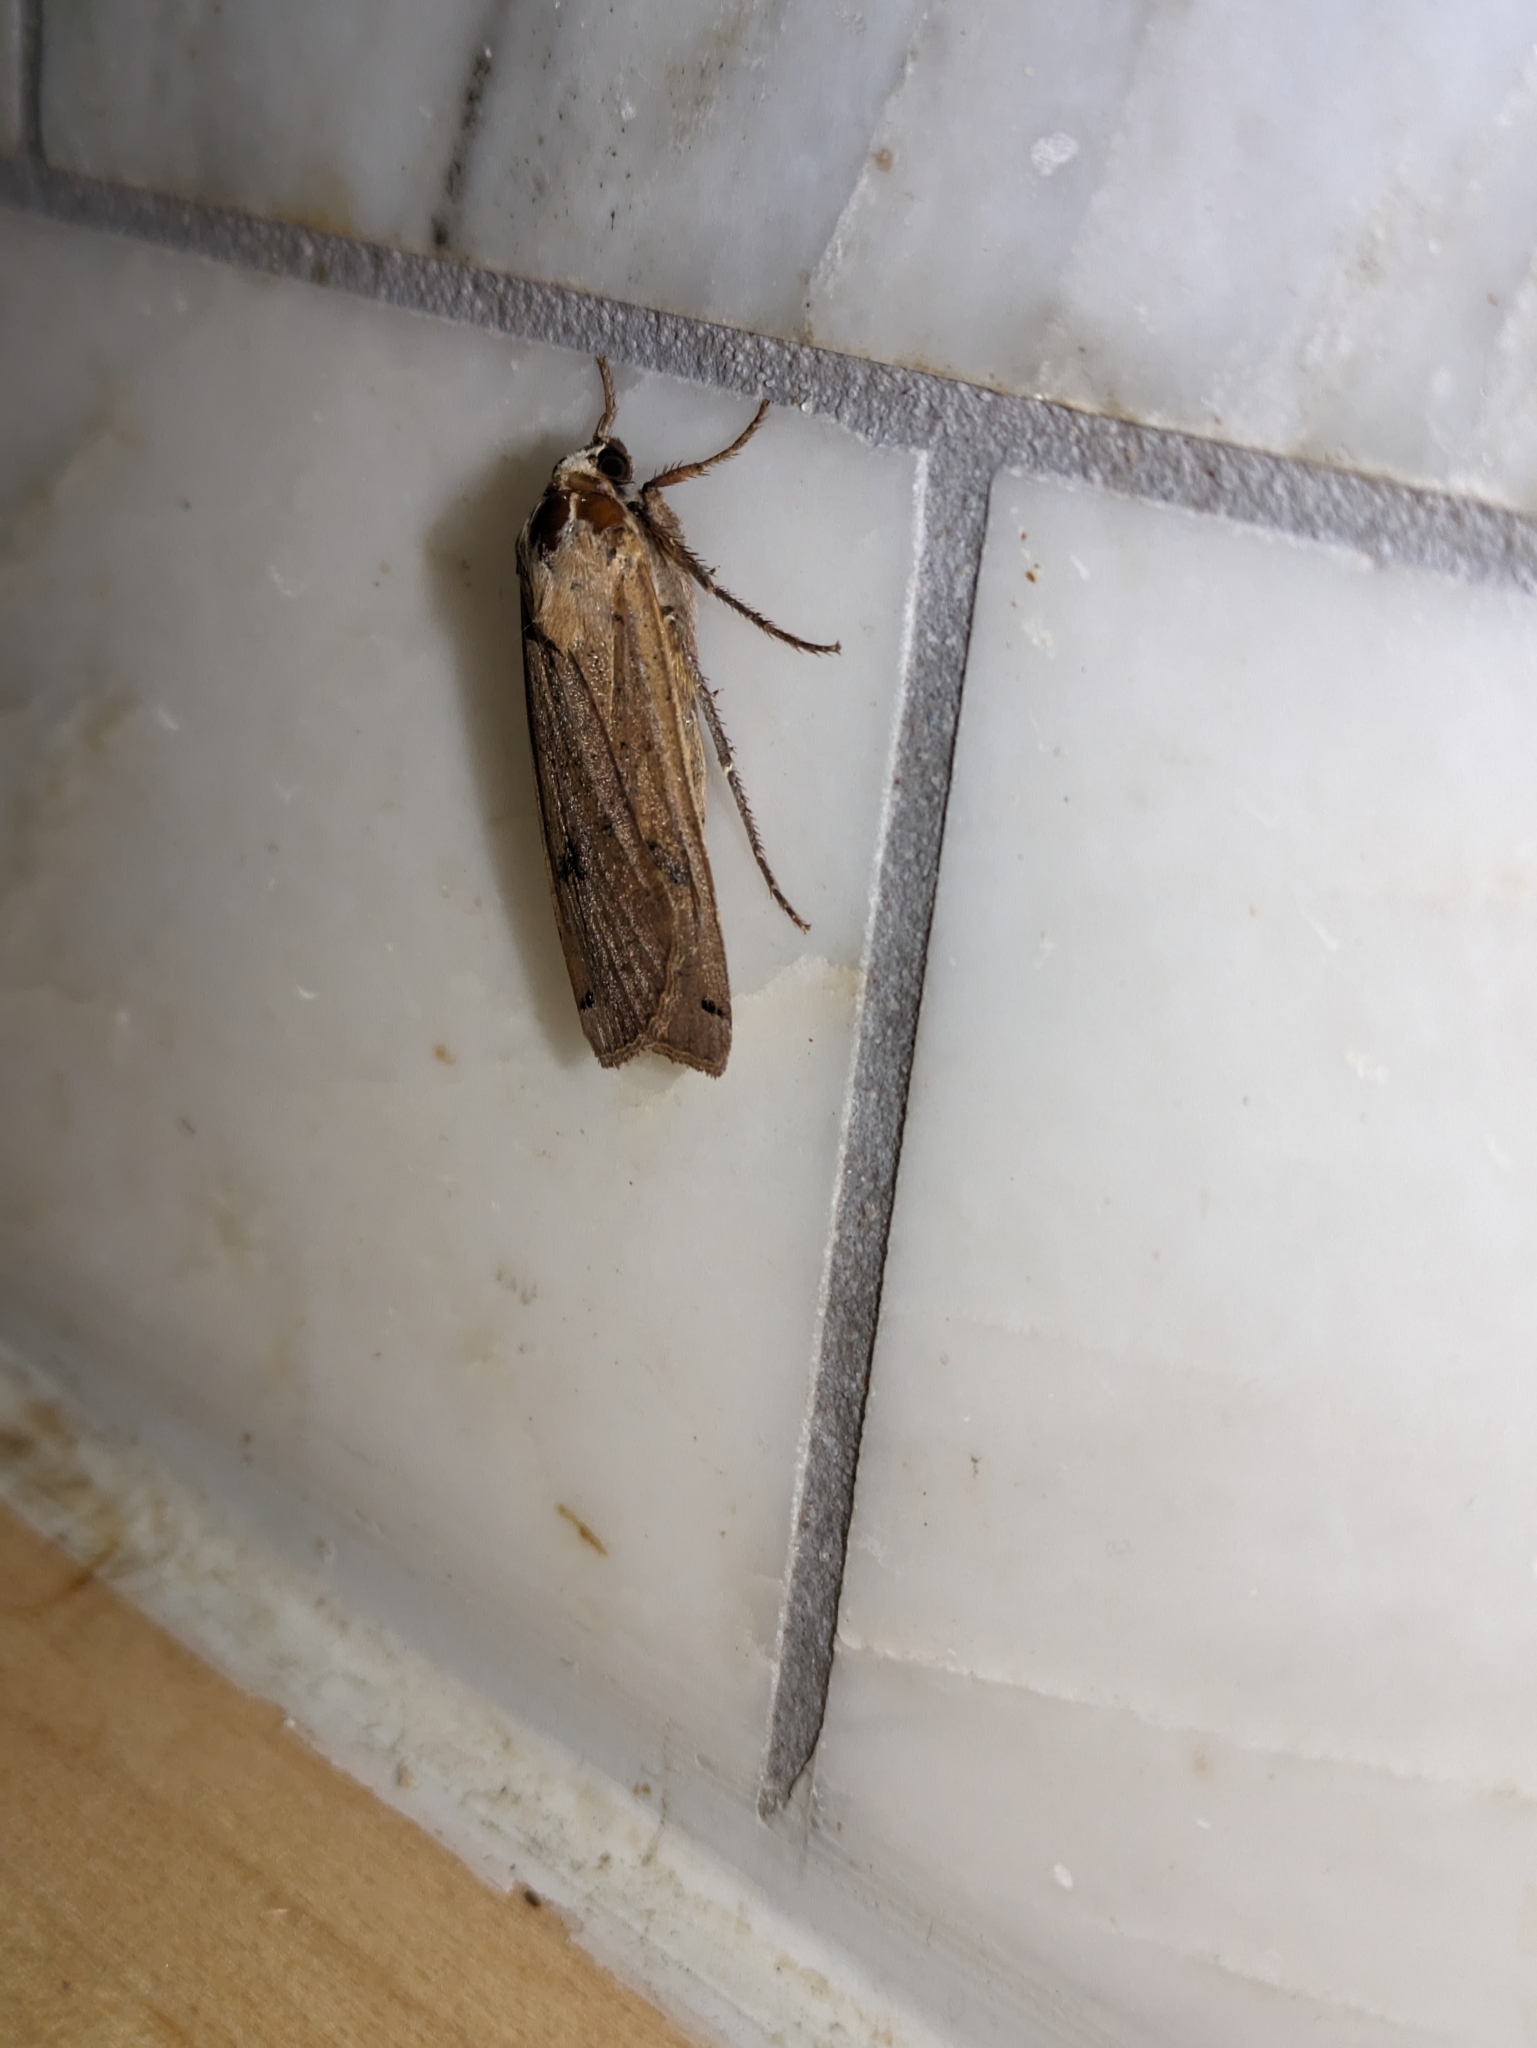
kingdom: Animalia
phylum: Arthropoda
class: Insecta
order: Lepidoptera
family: Noctuidae
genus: Noctua
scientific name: Noctua pronuba
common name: Large yellow underwing
